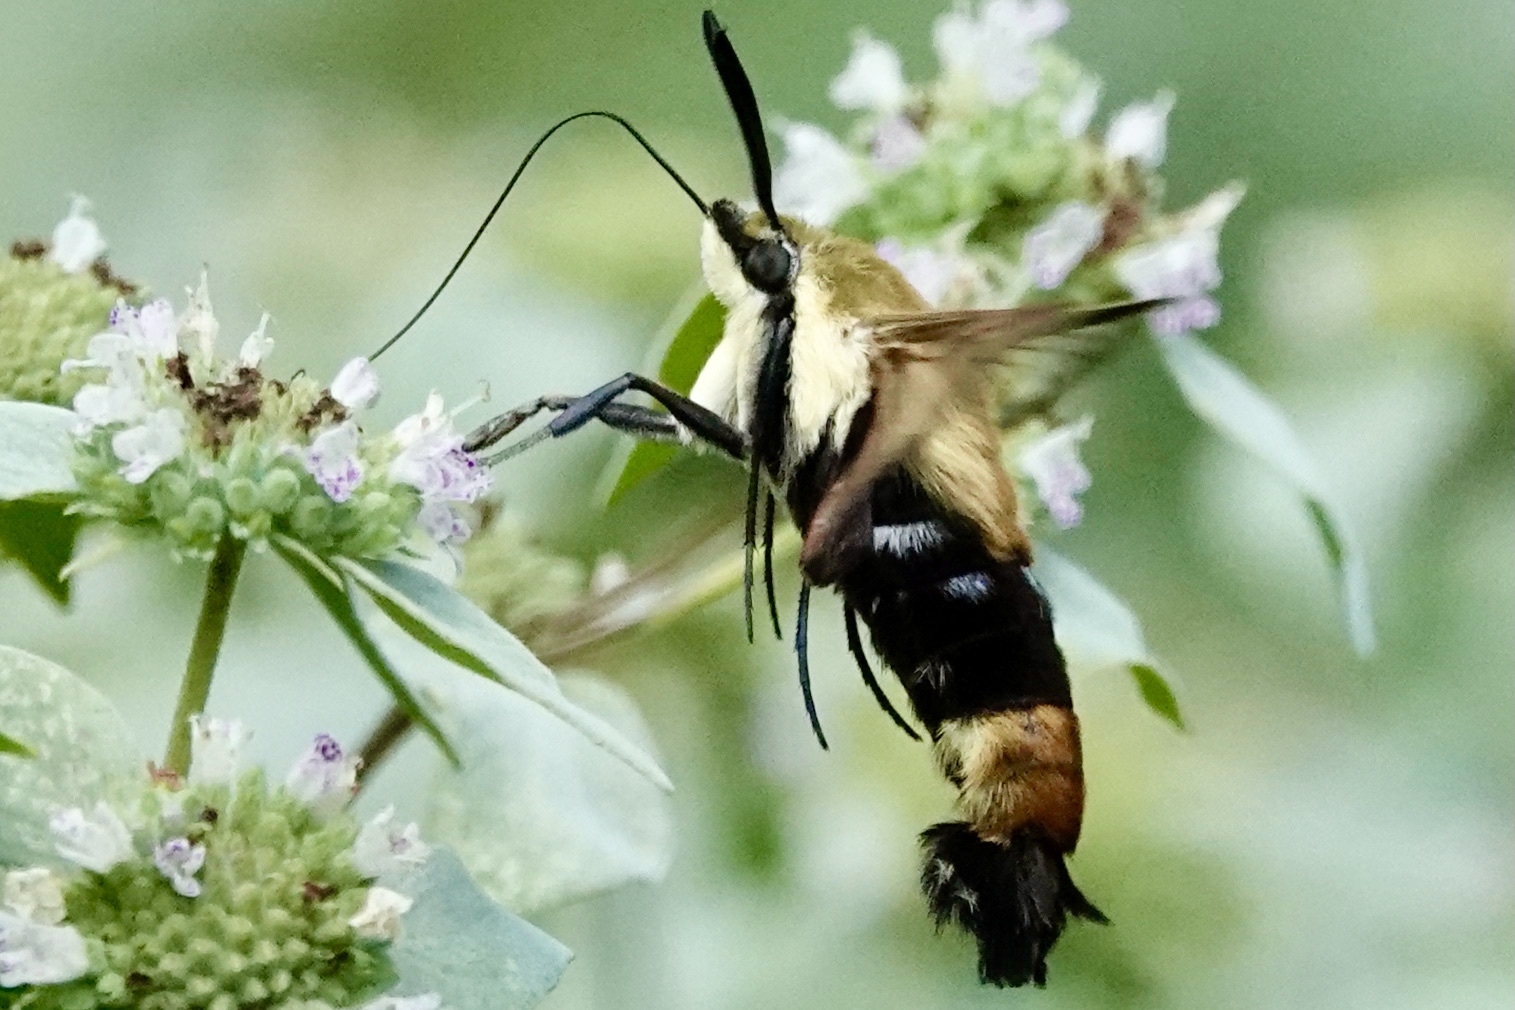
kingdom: Animalia
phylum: Arthropoda
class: Insecta
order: Lepidoptera
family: Sphingidae
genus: Hemaris
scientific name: Hemaris diffinis
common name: Bumblebee moth
